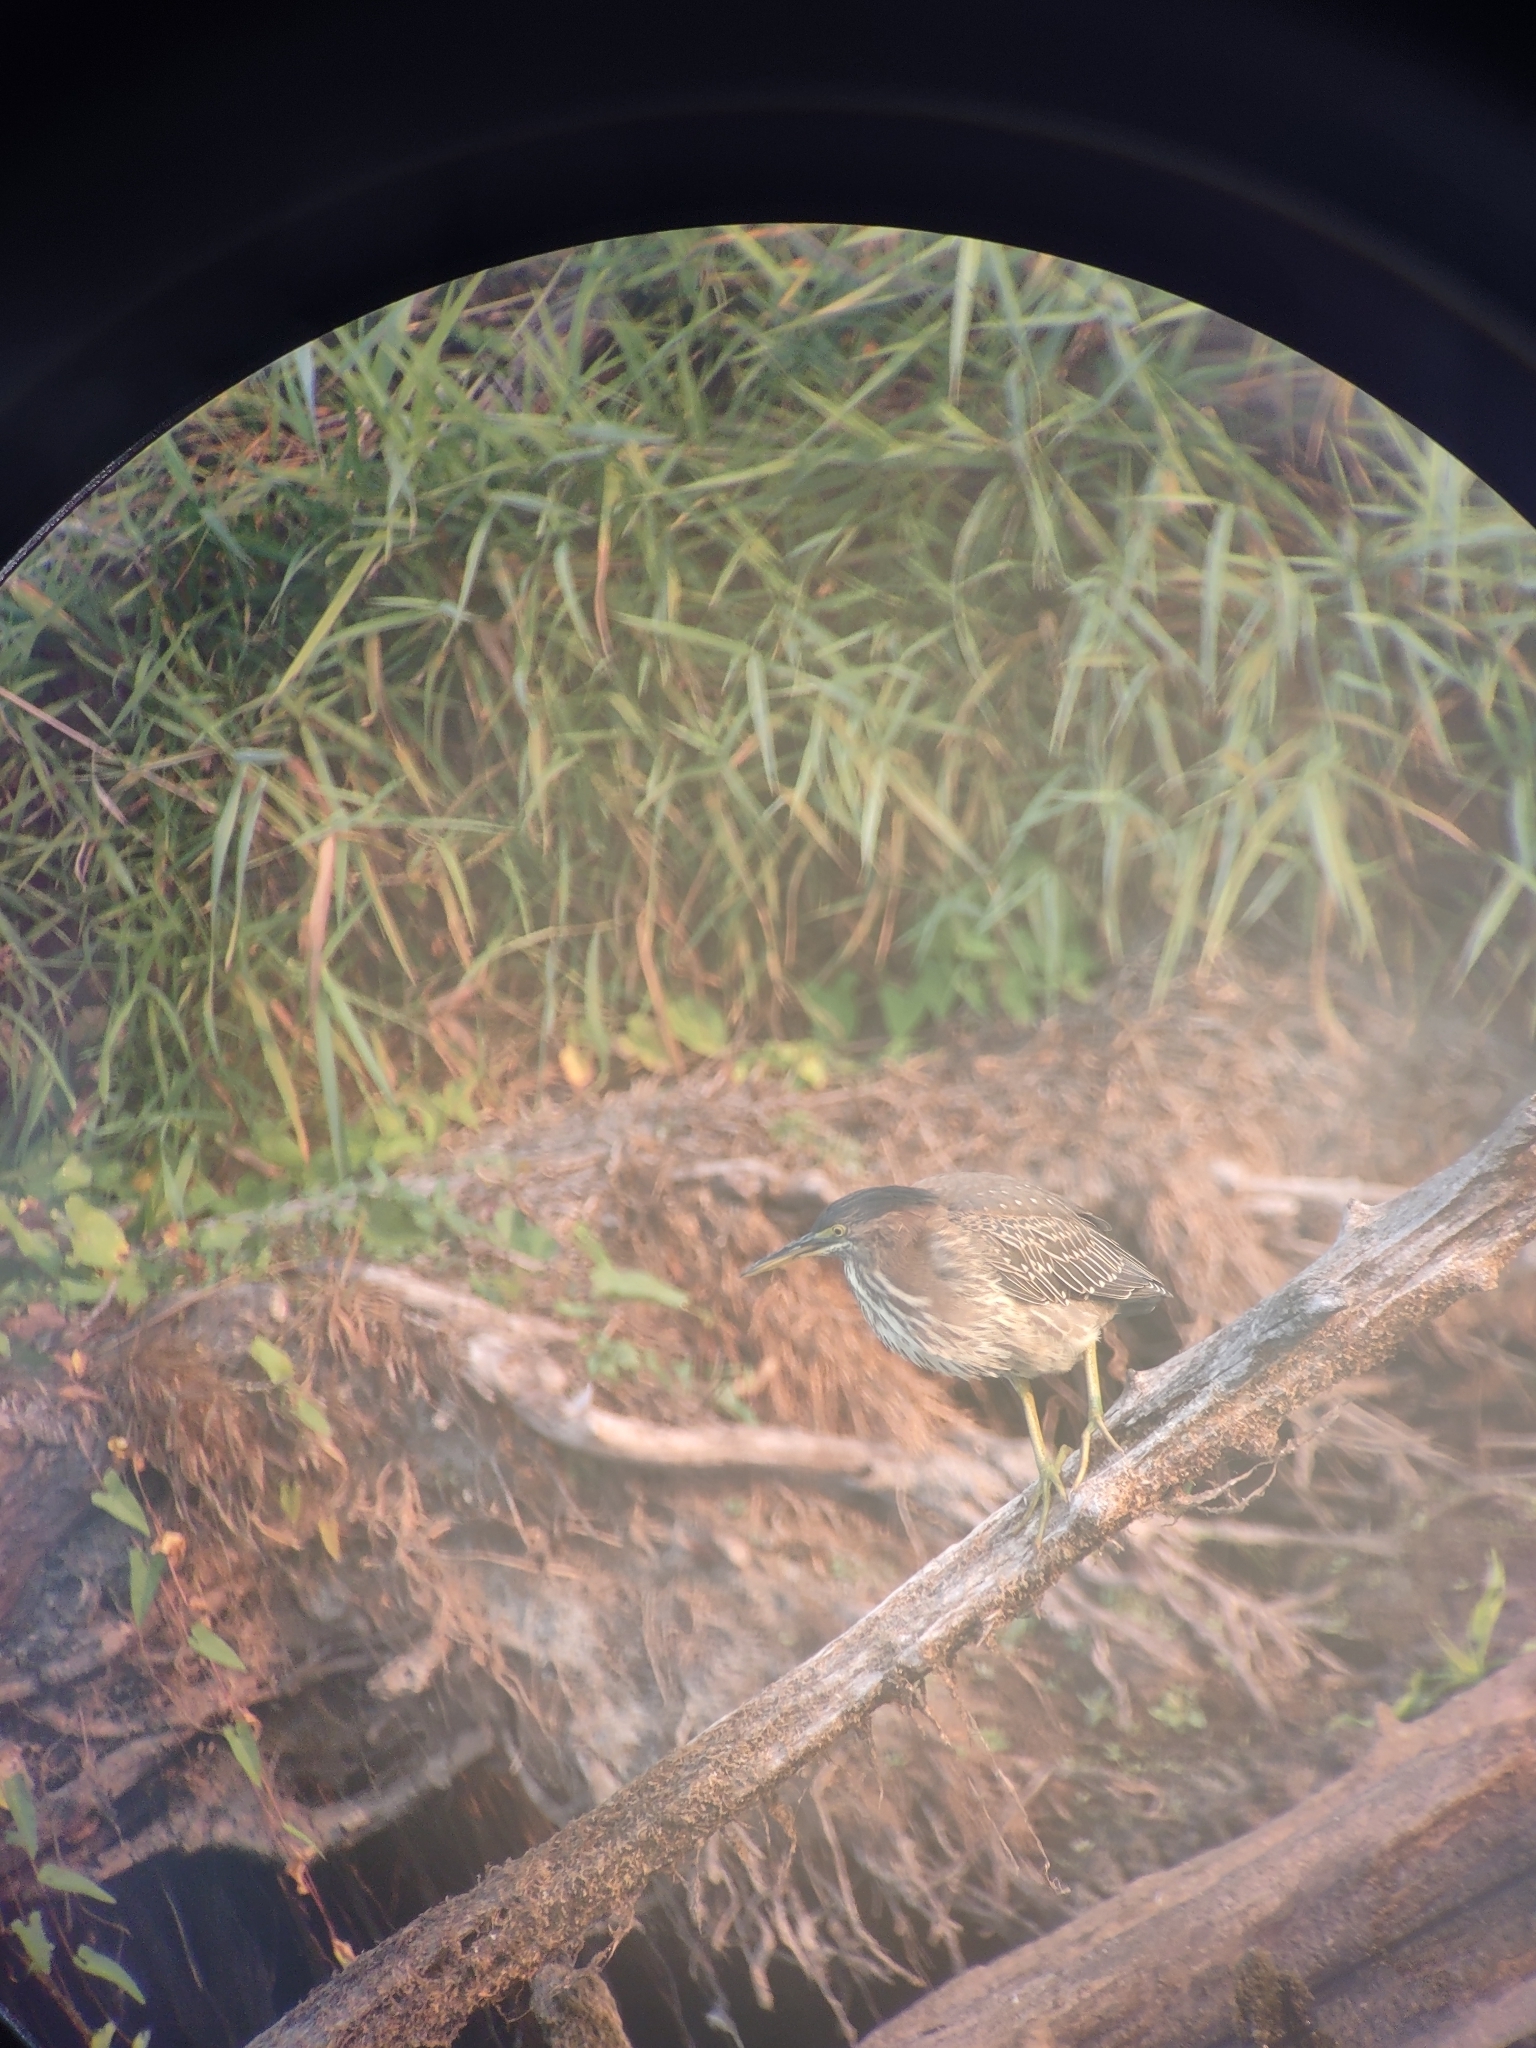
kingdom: Animalia
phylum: Chordata
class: Aves
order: Pelecaniformes
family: Ardeidae
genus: Butorides
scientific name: Butorides virescens
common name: Green heron
